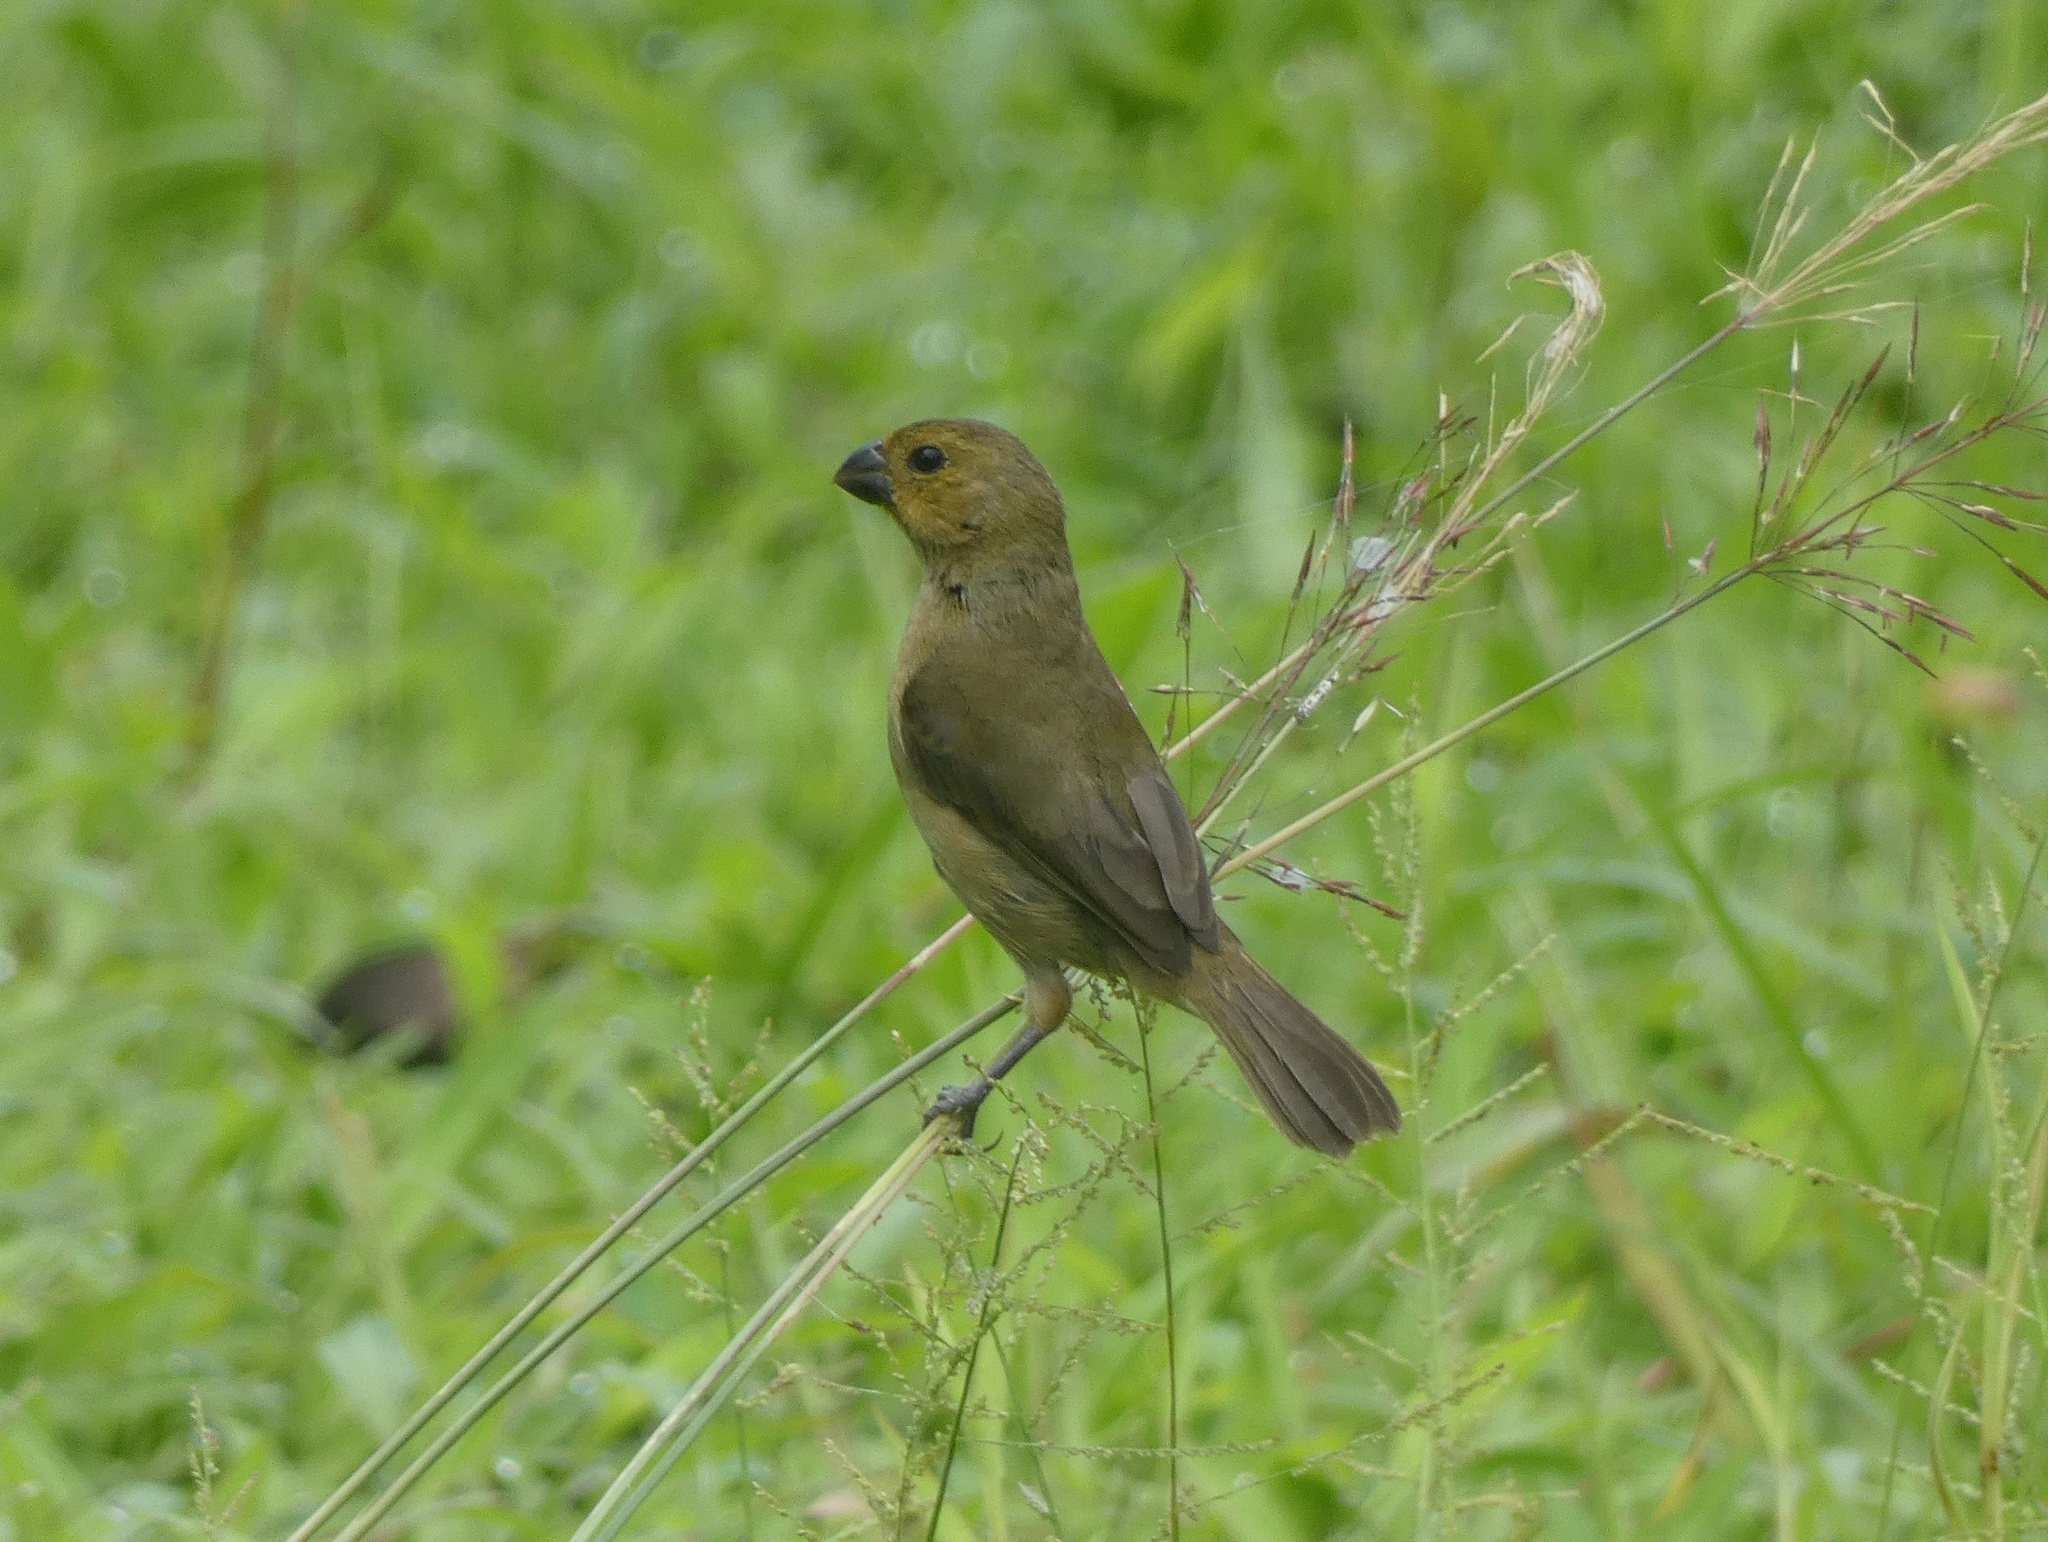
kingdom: Animalia
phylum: Chordata
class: Aves
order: Passeriformes
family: Thraupidae
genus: Sporophila
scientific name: Sporophila corvina
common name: Variable seedeater
